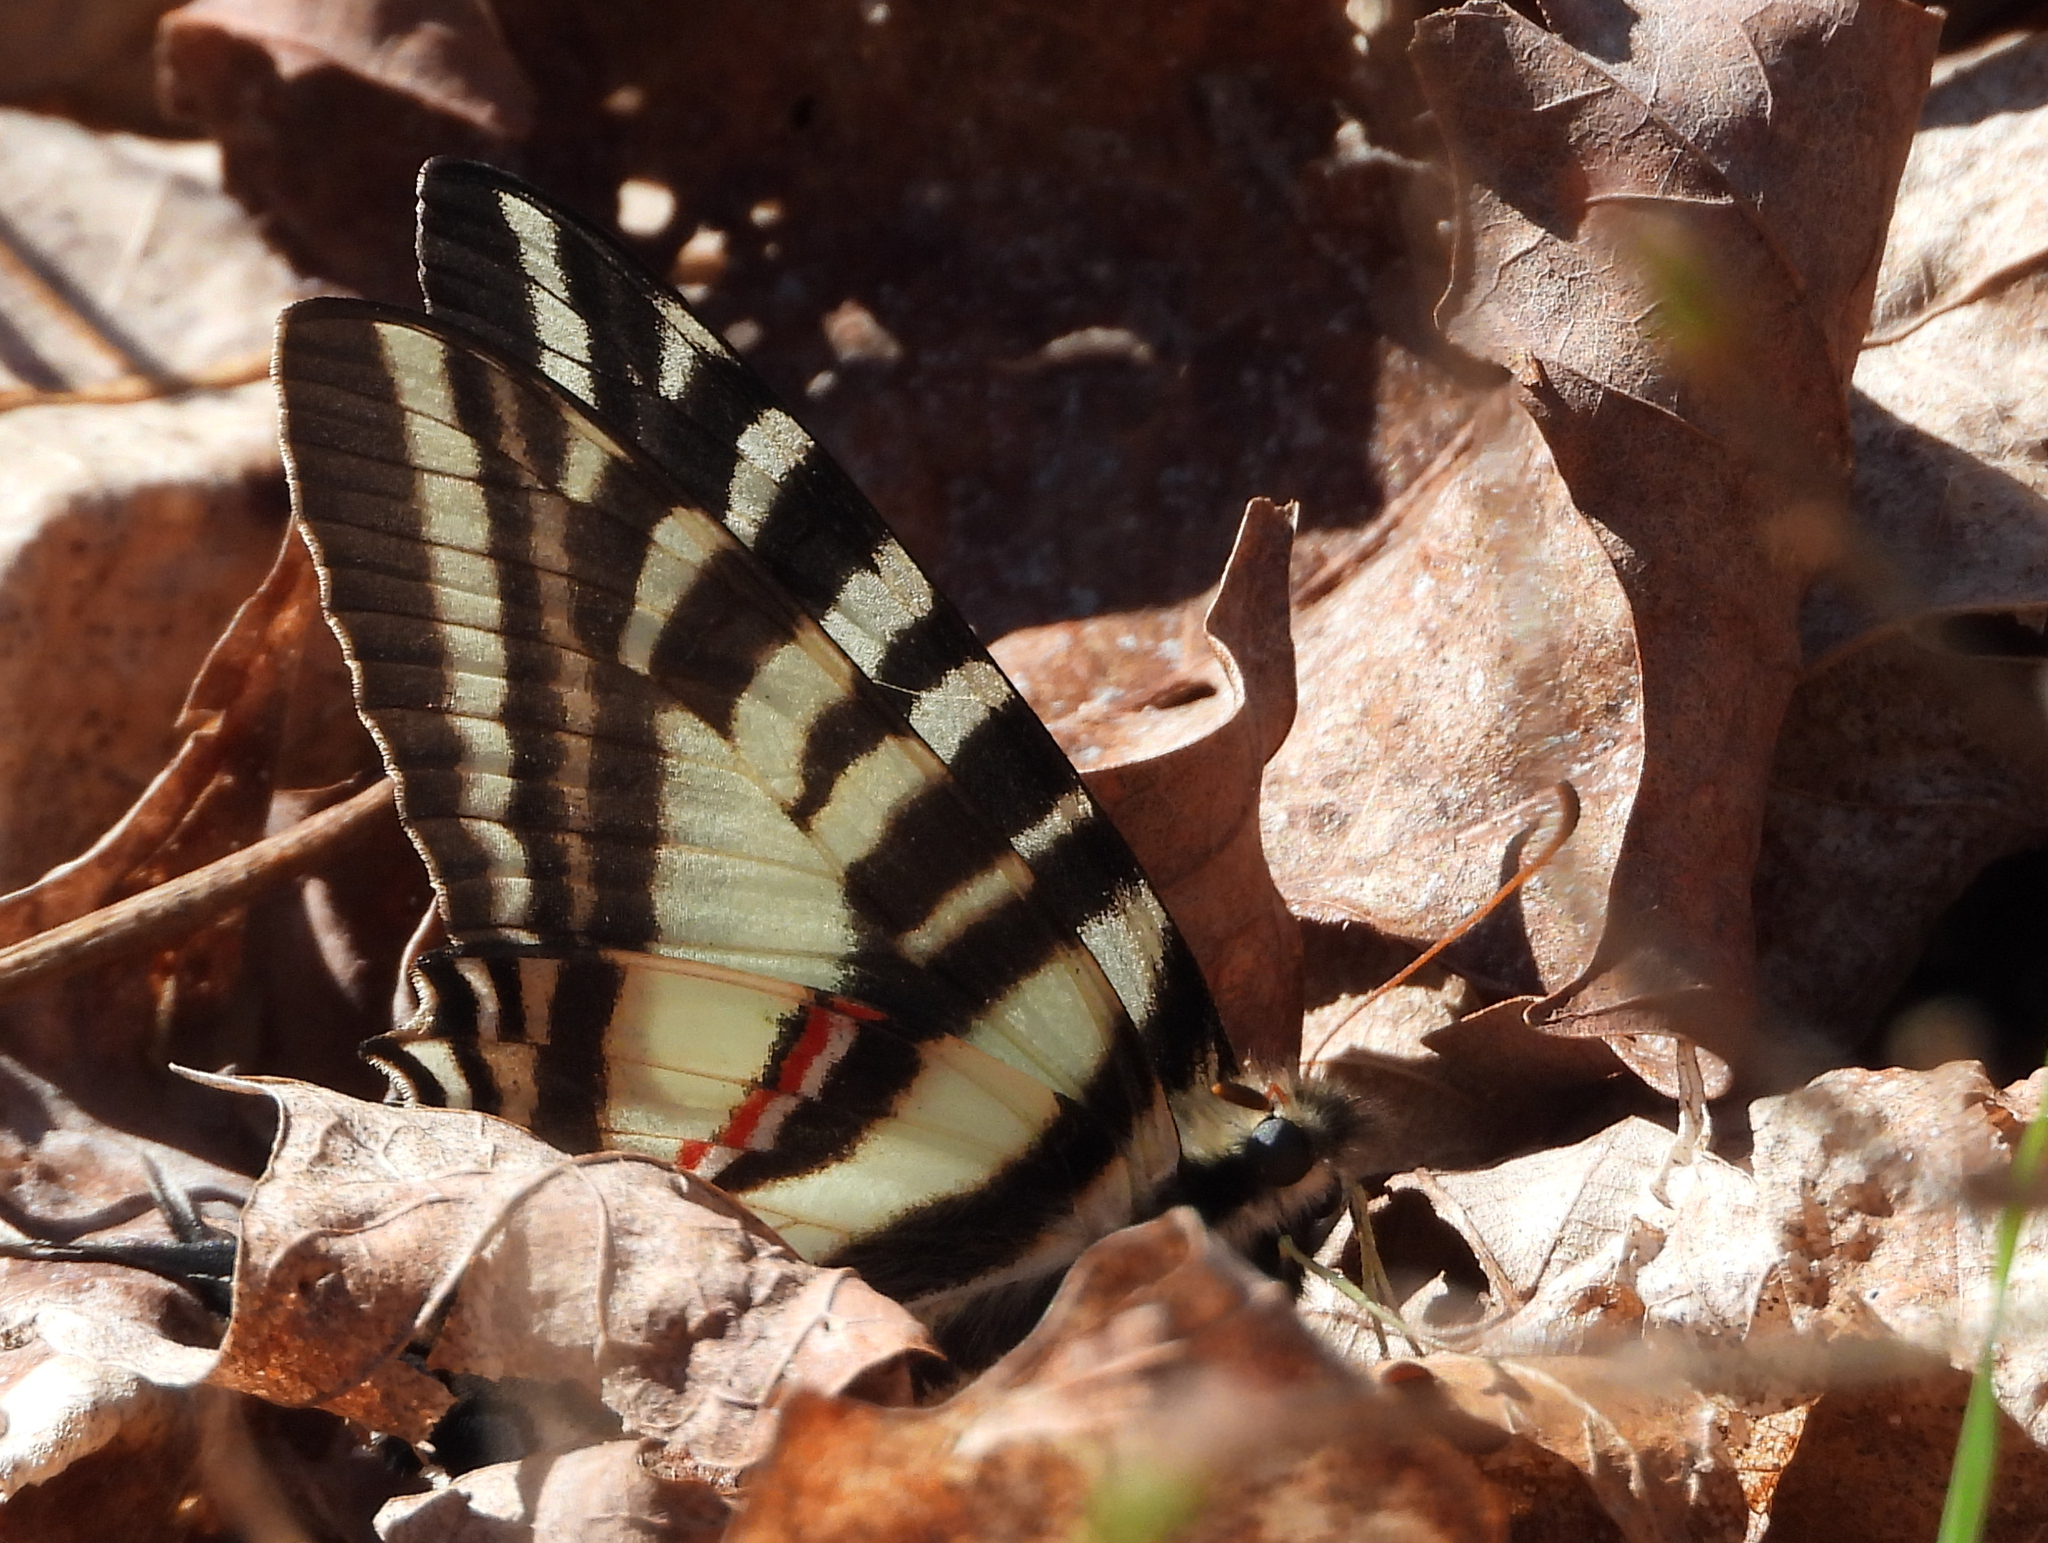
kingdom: Animalia
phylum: Arthropoda
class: Insecta
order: Lepidoptera
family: Papilionidae
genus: Protographium
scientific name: Protographium marcellus
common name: Zebra swallowtail
